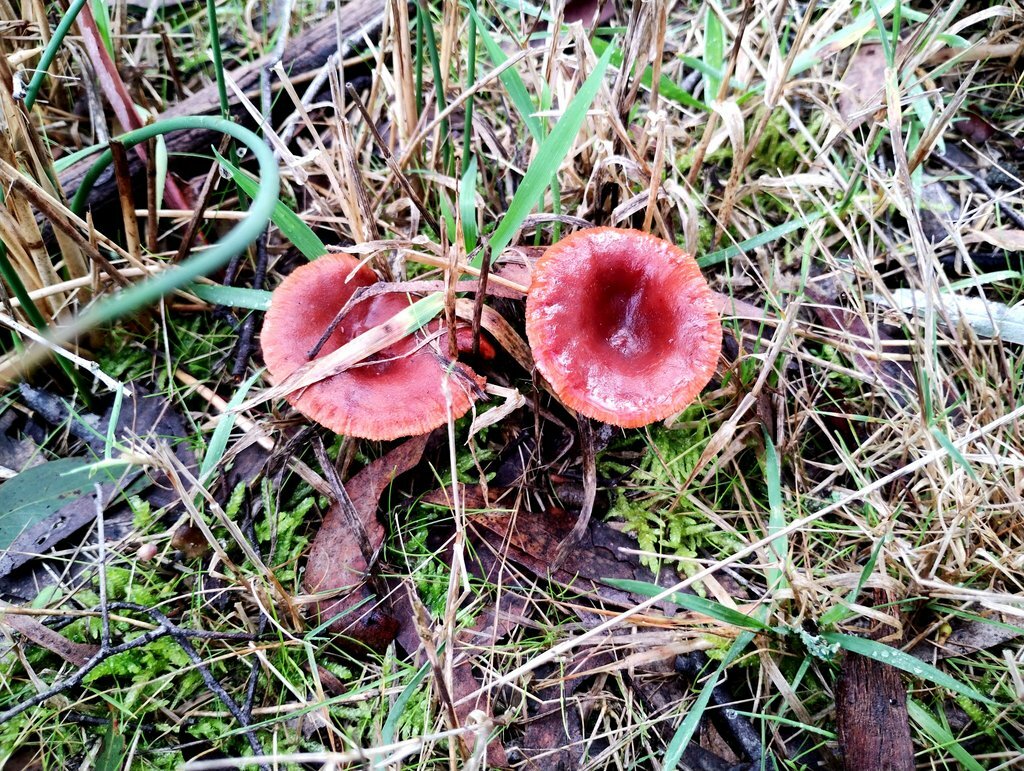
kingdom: Fungi
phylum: Basidiomycota
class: Agaricomycetes
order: Russulales
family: Russulaceae
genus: Lactarius
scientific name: Lactarius eucalypti
